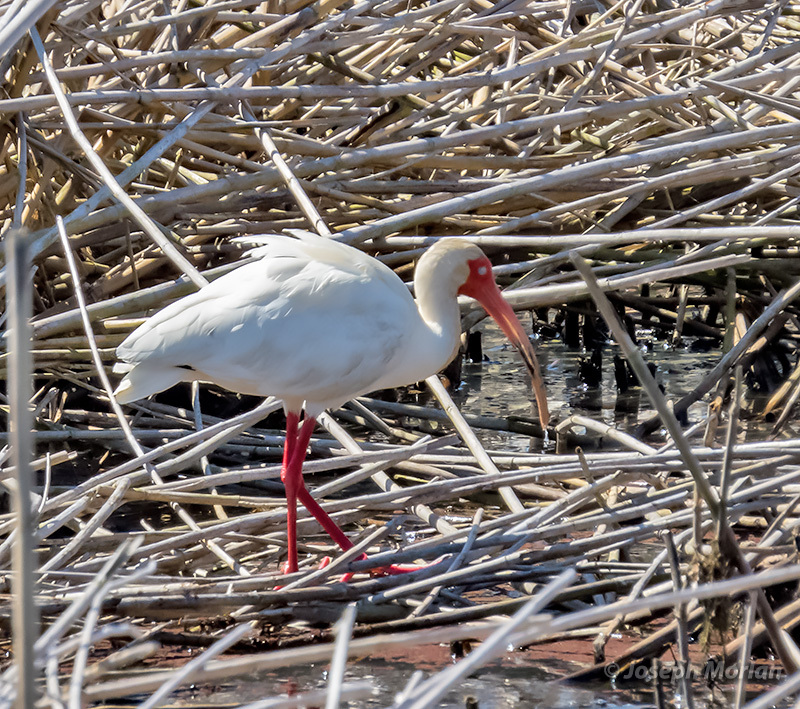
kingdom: Animalia
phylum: Chordata
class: Aves
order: Pelecaniformes
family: Threskiornithidae
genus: Eudocimus
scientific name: Eudocimus albus
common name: White ibis
